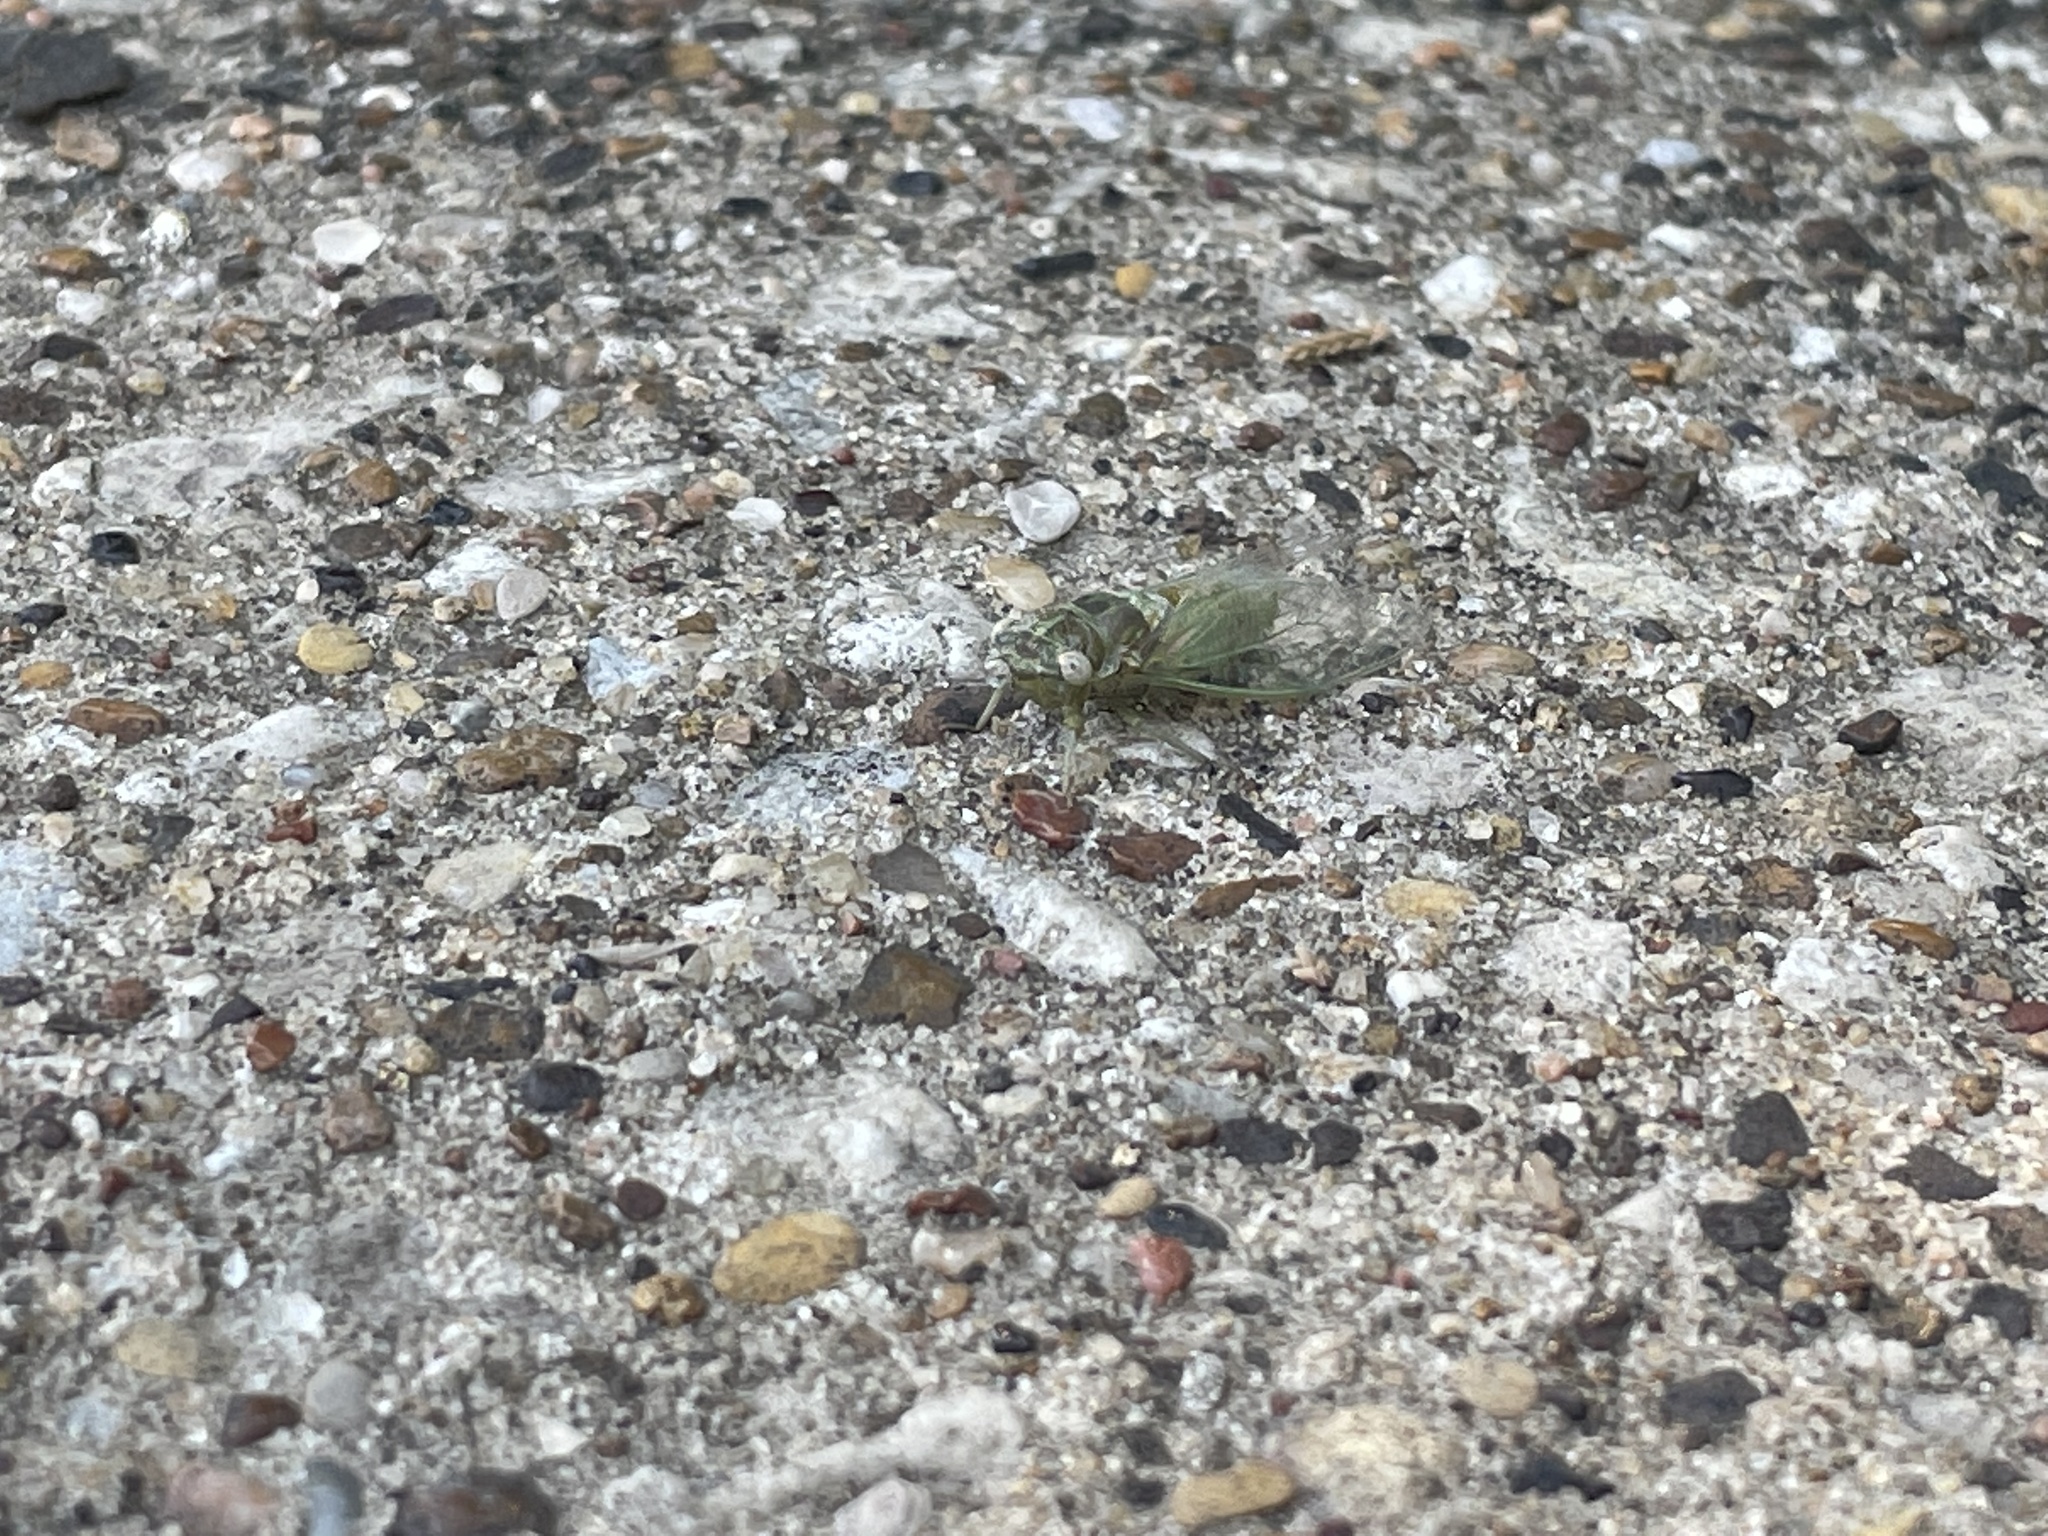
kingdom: Animalia
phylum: Arthropoda
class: Insecta
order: Hemiptera
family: Cicadidae
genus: Pacarina
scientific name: Pacarina puella
